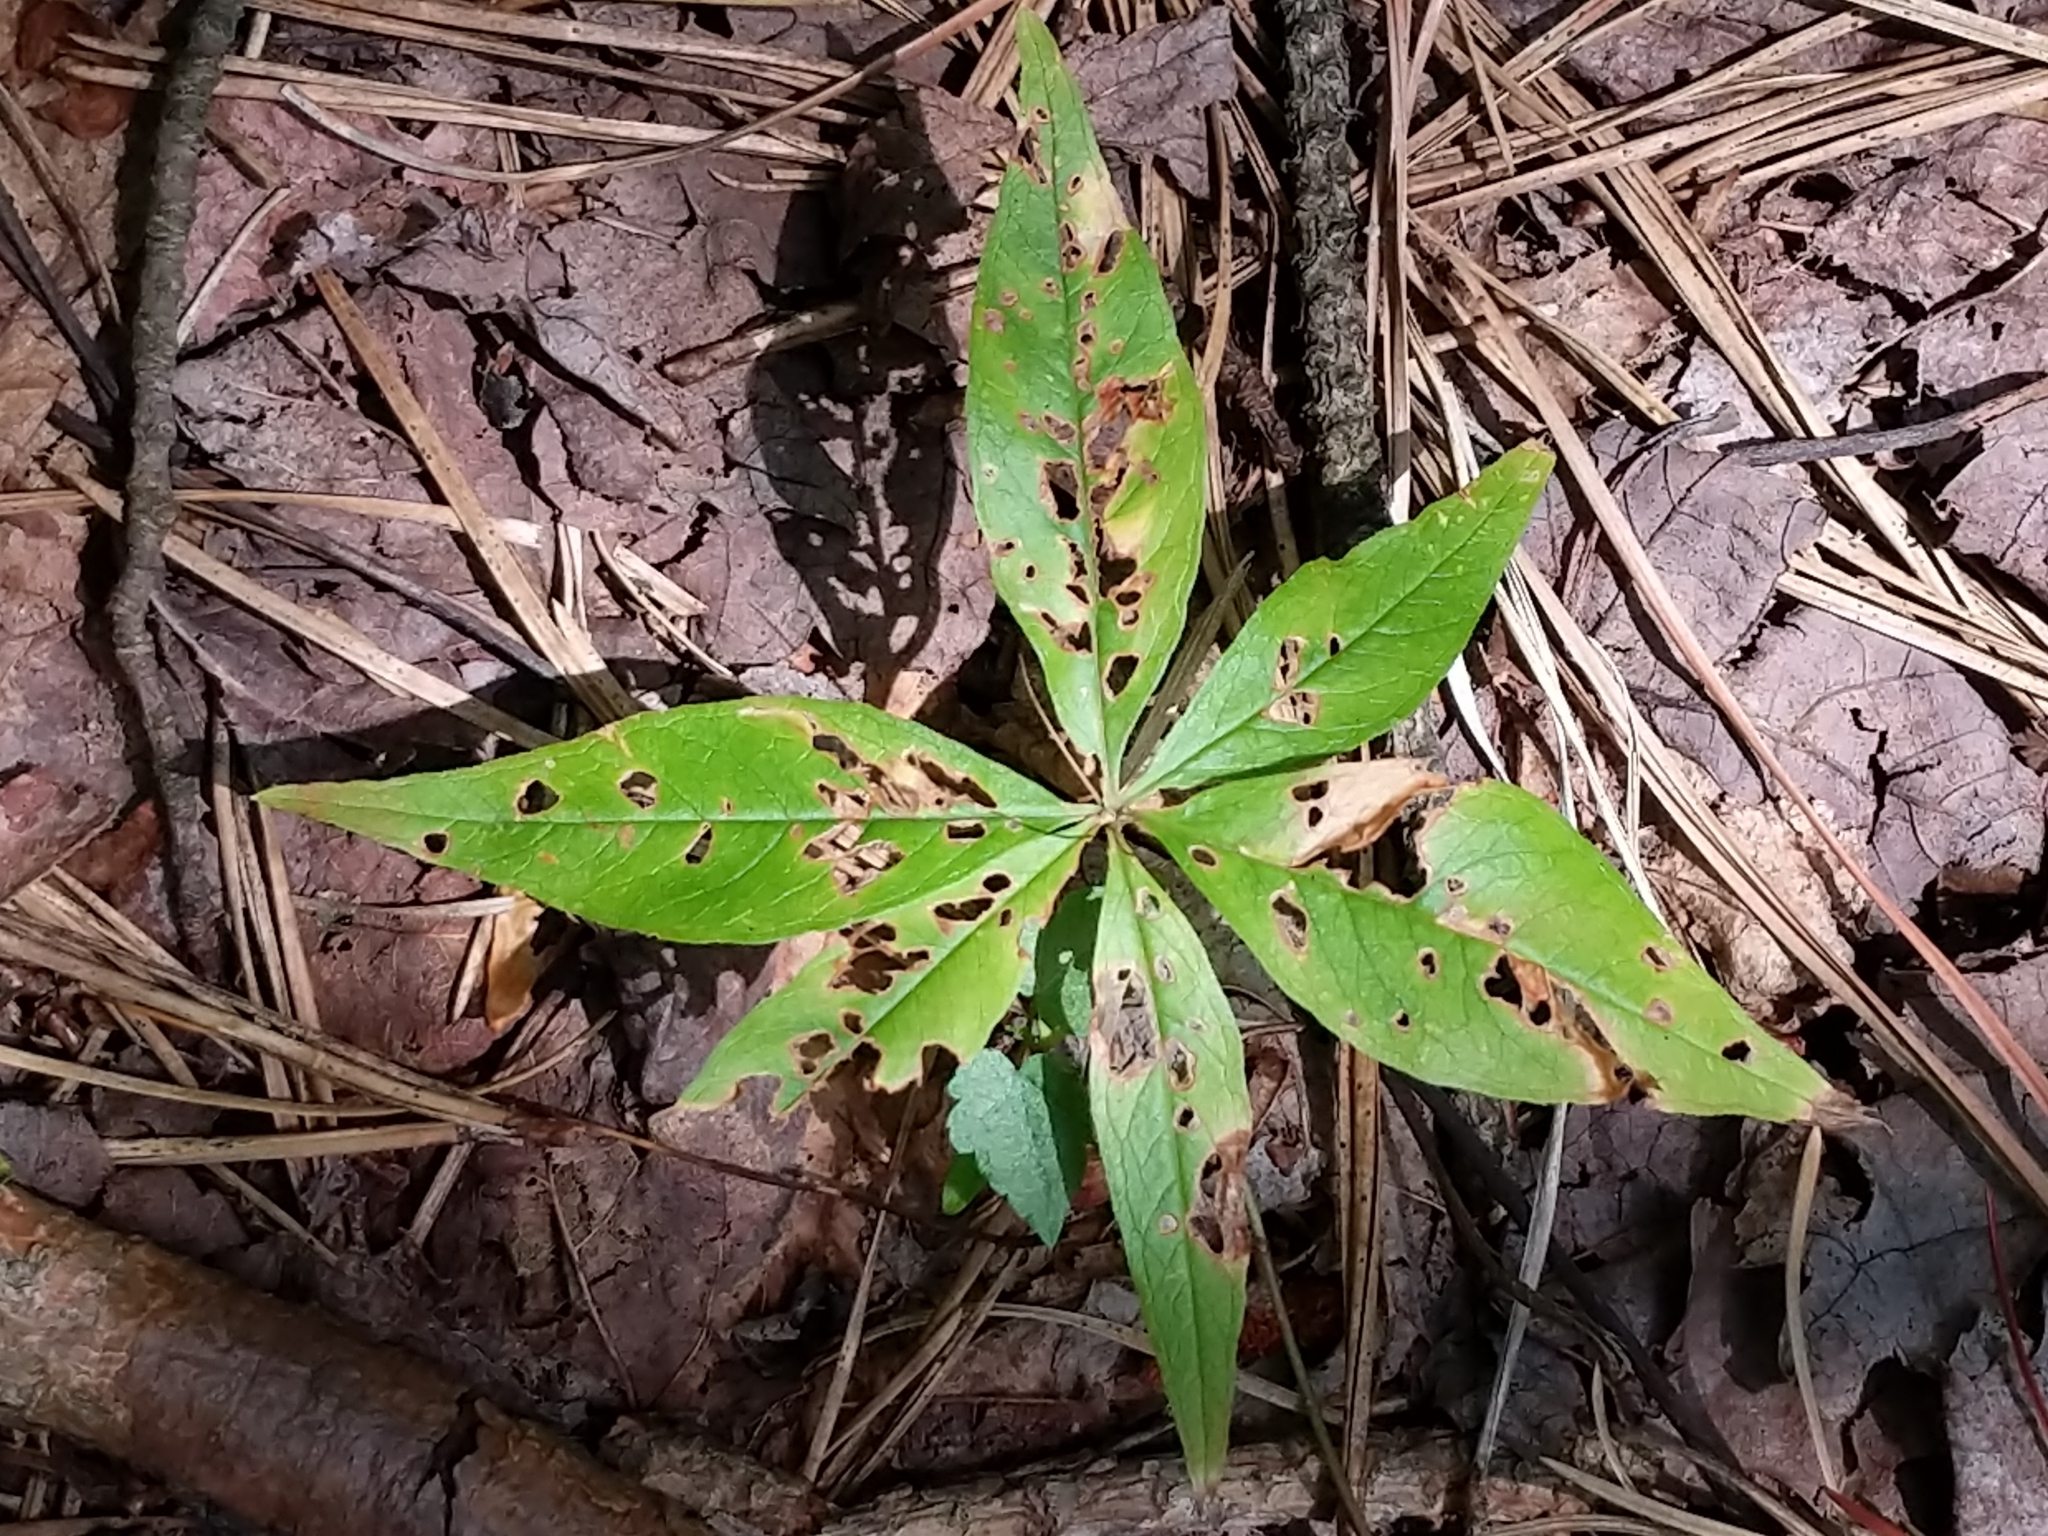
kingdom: Plantae
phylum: Tracheophyta
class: Magnoliopsida
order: Ericales
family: Primulaceae
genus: Lysimachia
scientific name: Lysimachia borealis
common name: American starflower
